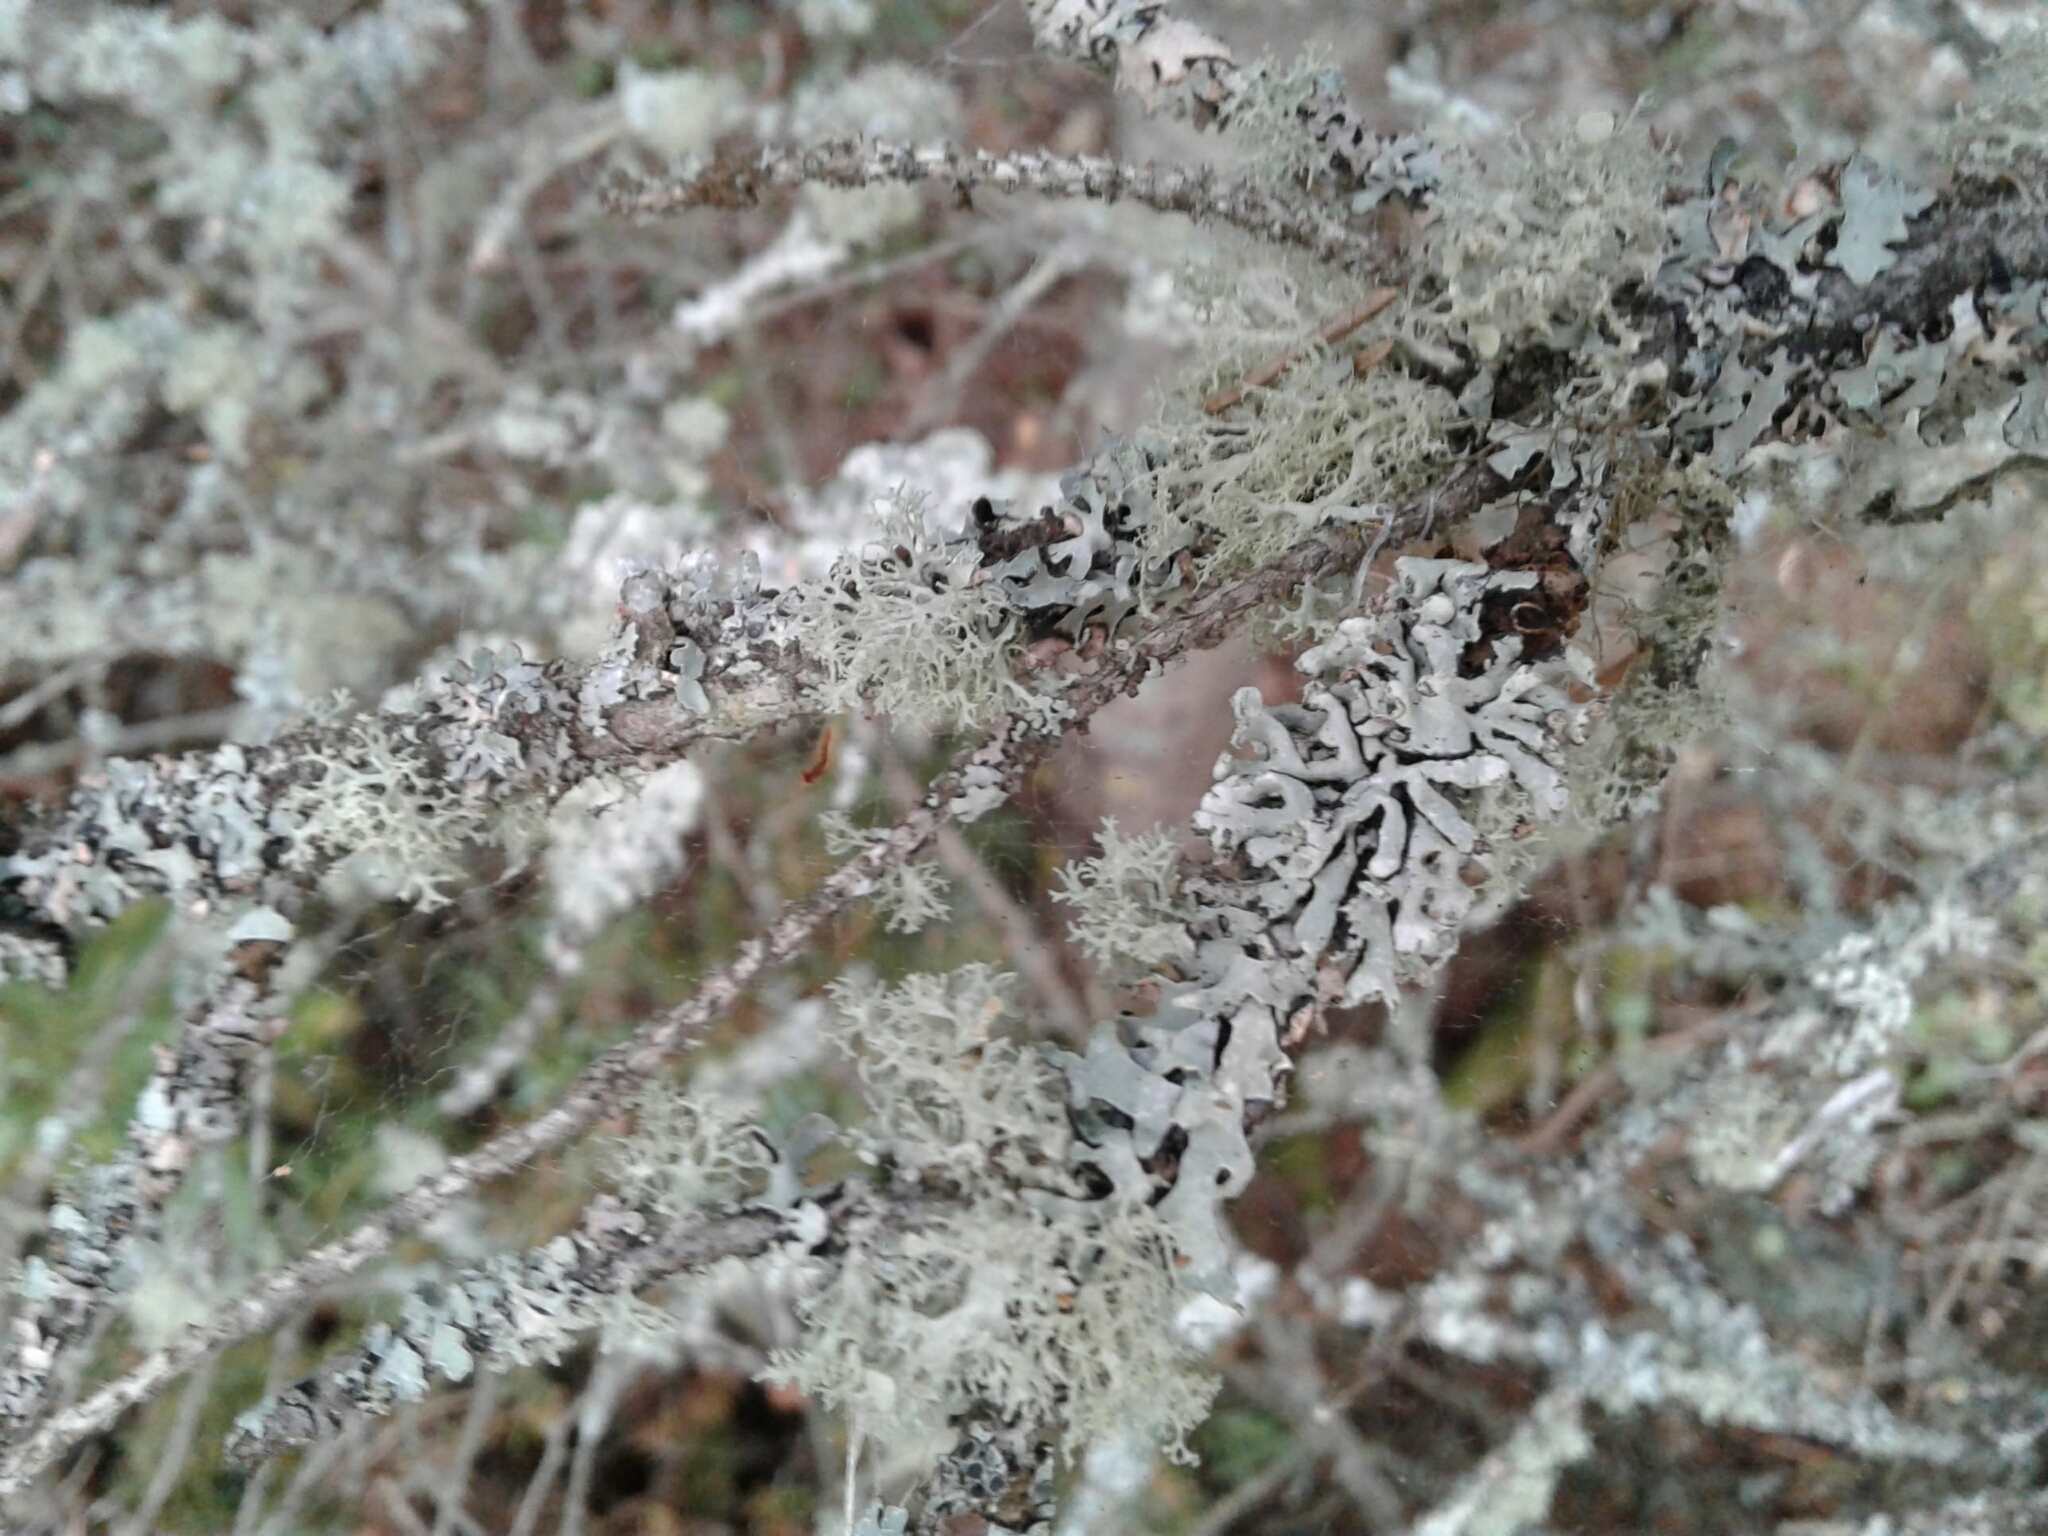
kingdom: Fungi
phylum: Ascomycota
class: Lecanoromycetes
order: Lecanorales
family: Parmeliaceae
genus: Evernia
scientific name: Evernia mesomorpha
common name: Boreal oak moss lichen
